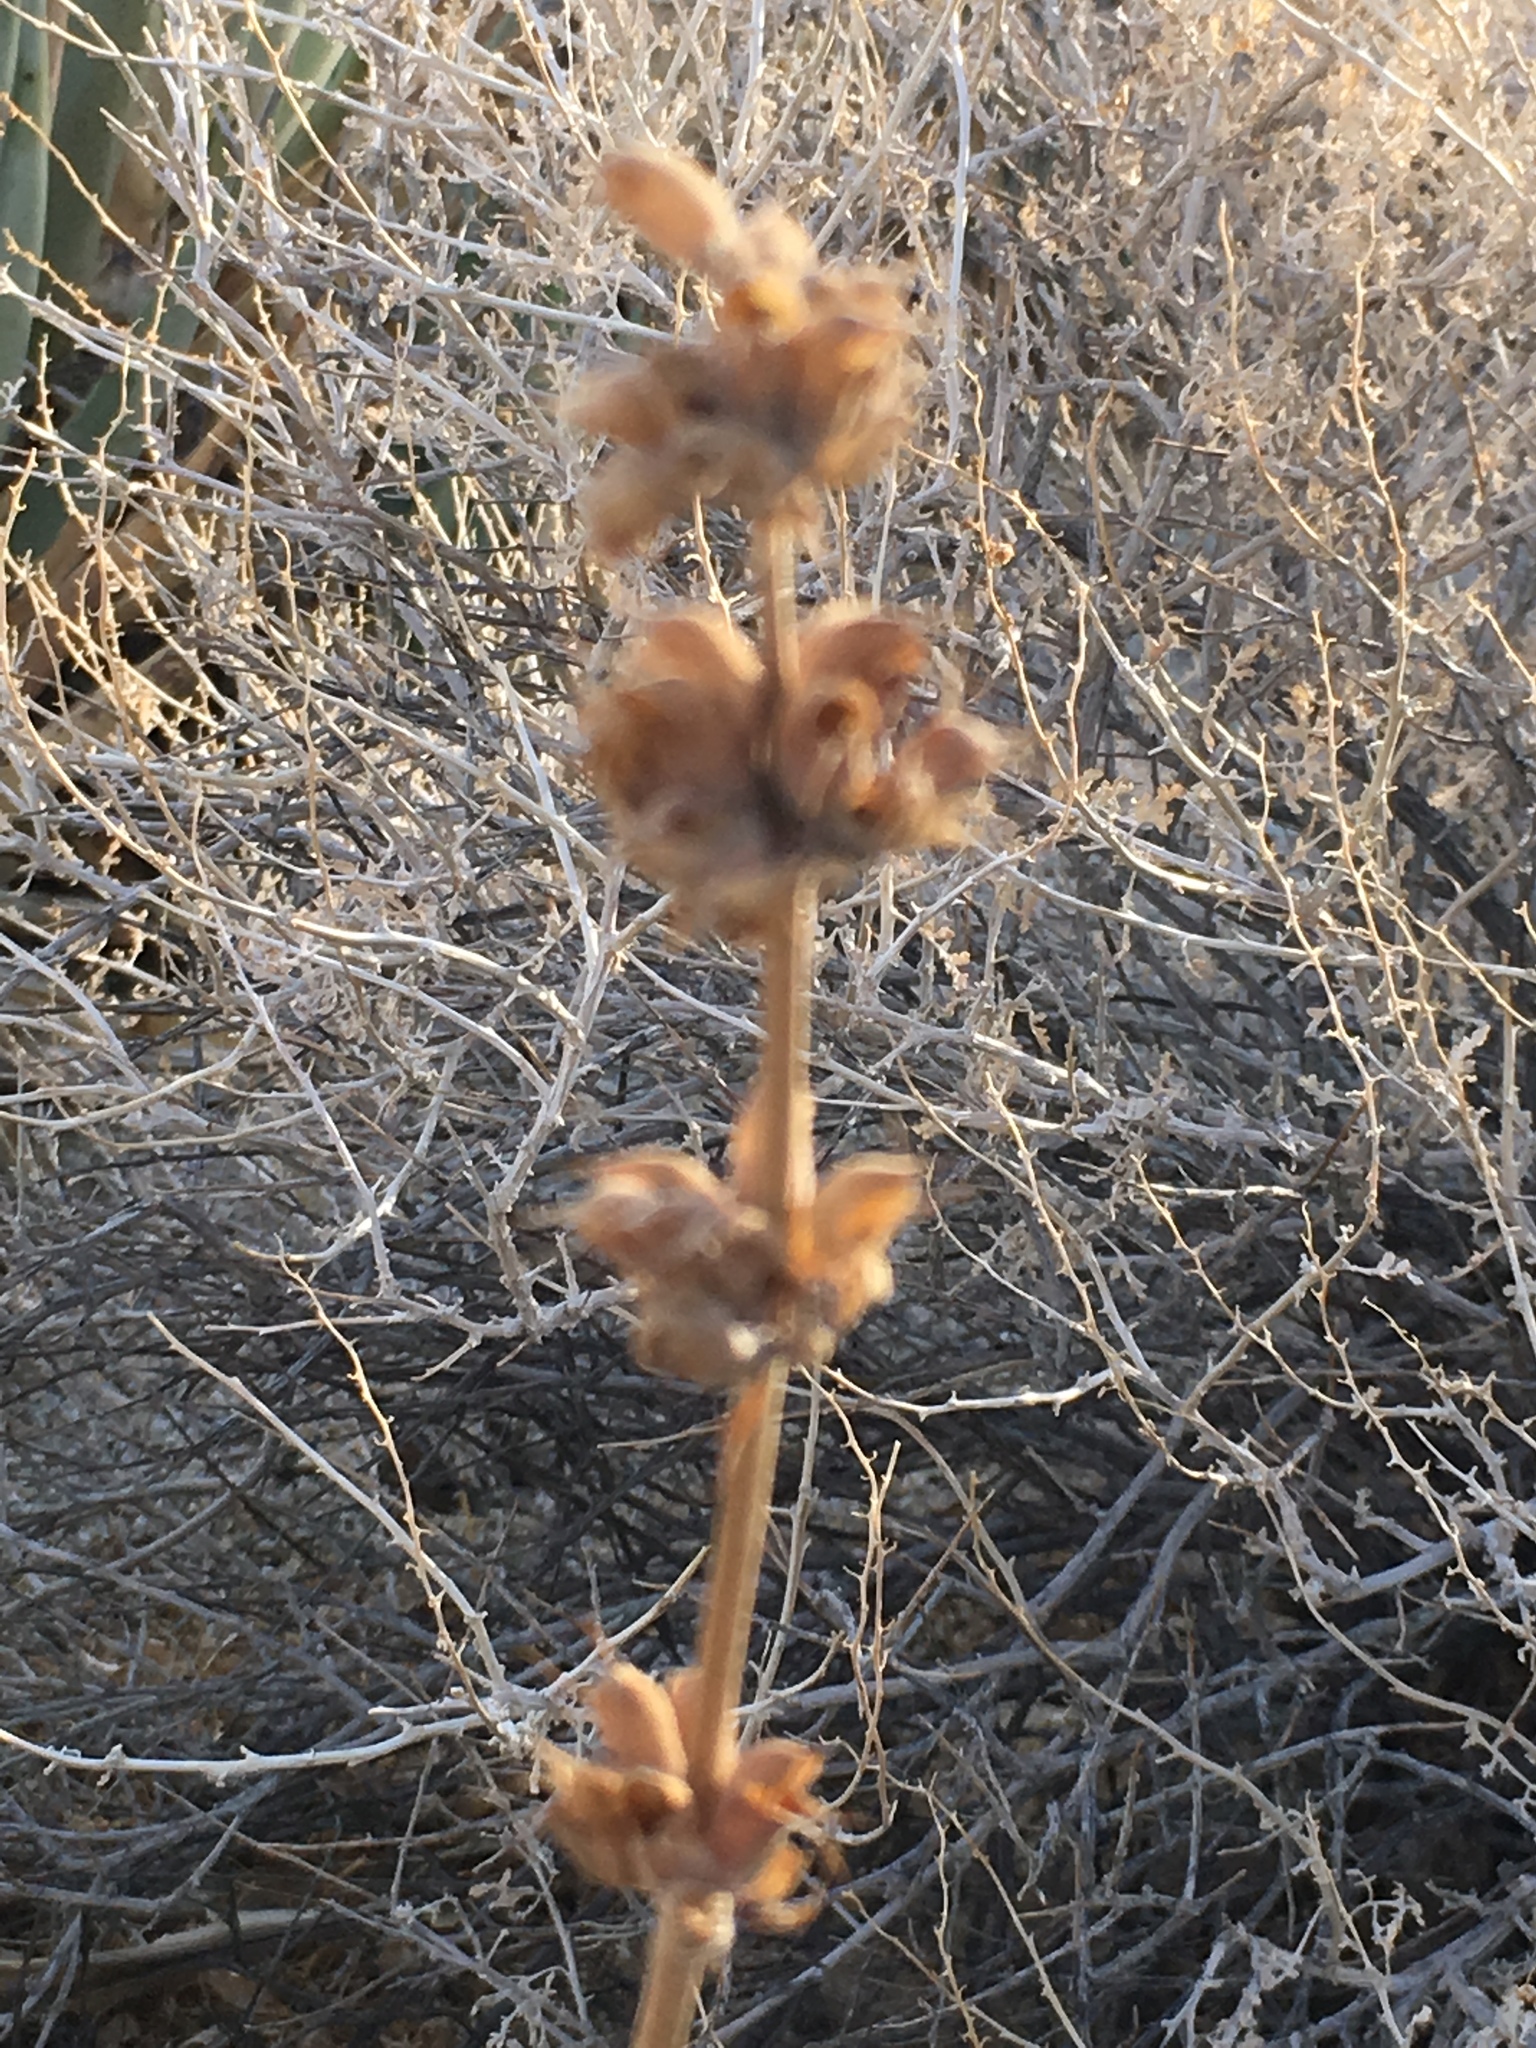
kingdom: Plantae
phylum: Tracheophyta
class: Magnoliopsida
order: Lamiales
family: Lamiaceae
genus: Salvia
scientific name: Salvia vaseyi
